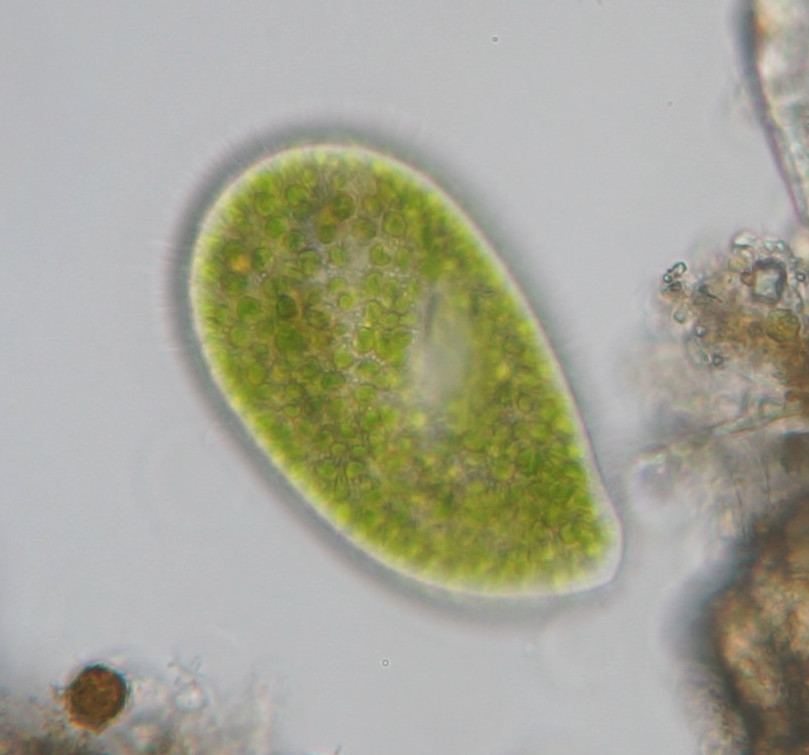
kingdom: Chromista
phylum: Ciliophora
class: Oligohymenophorea
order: Peniculida
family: Parameciidae
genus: Paramecium
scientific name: Paramecium
